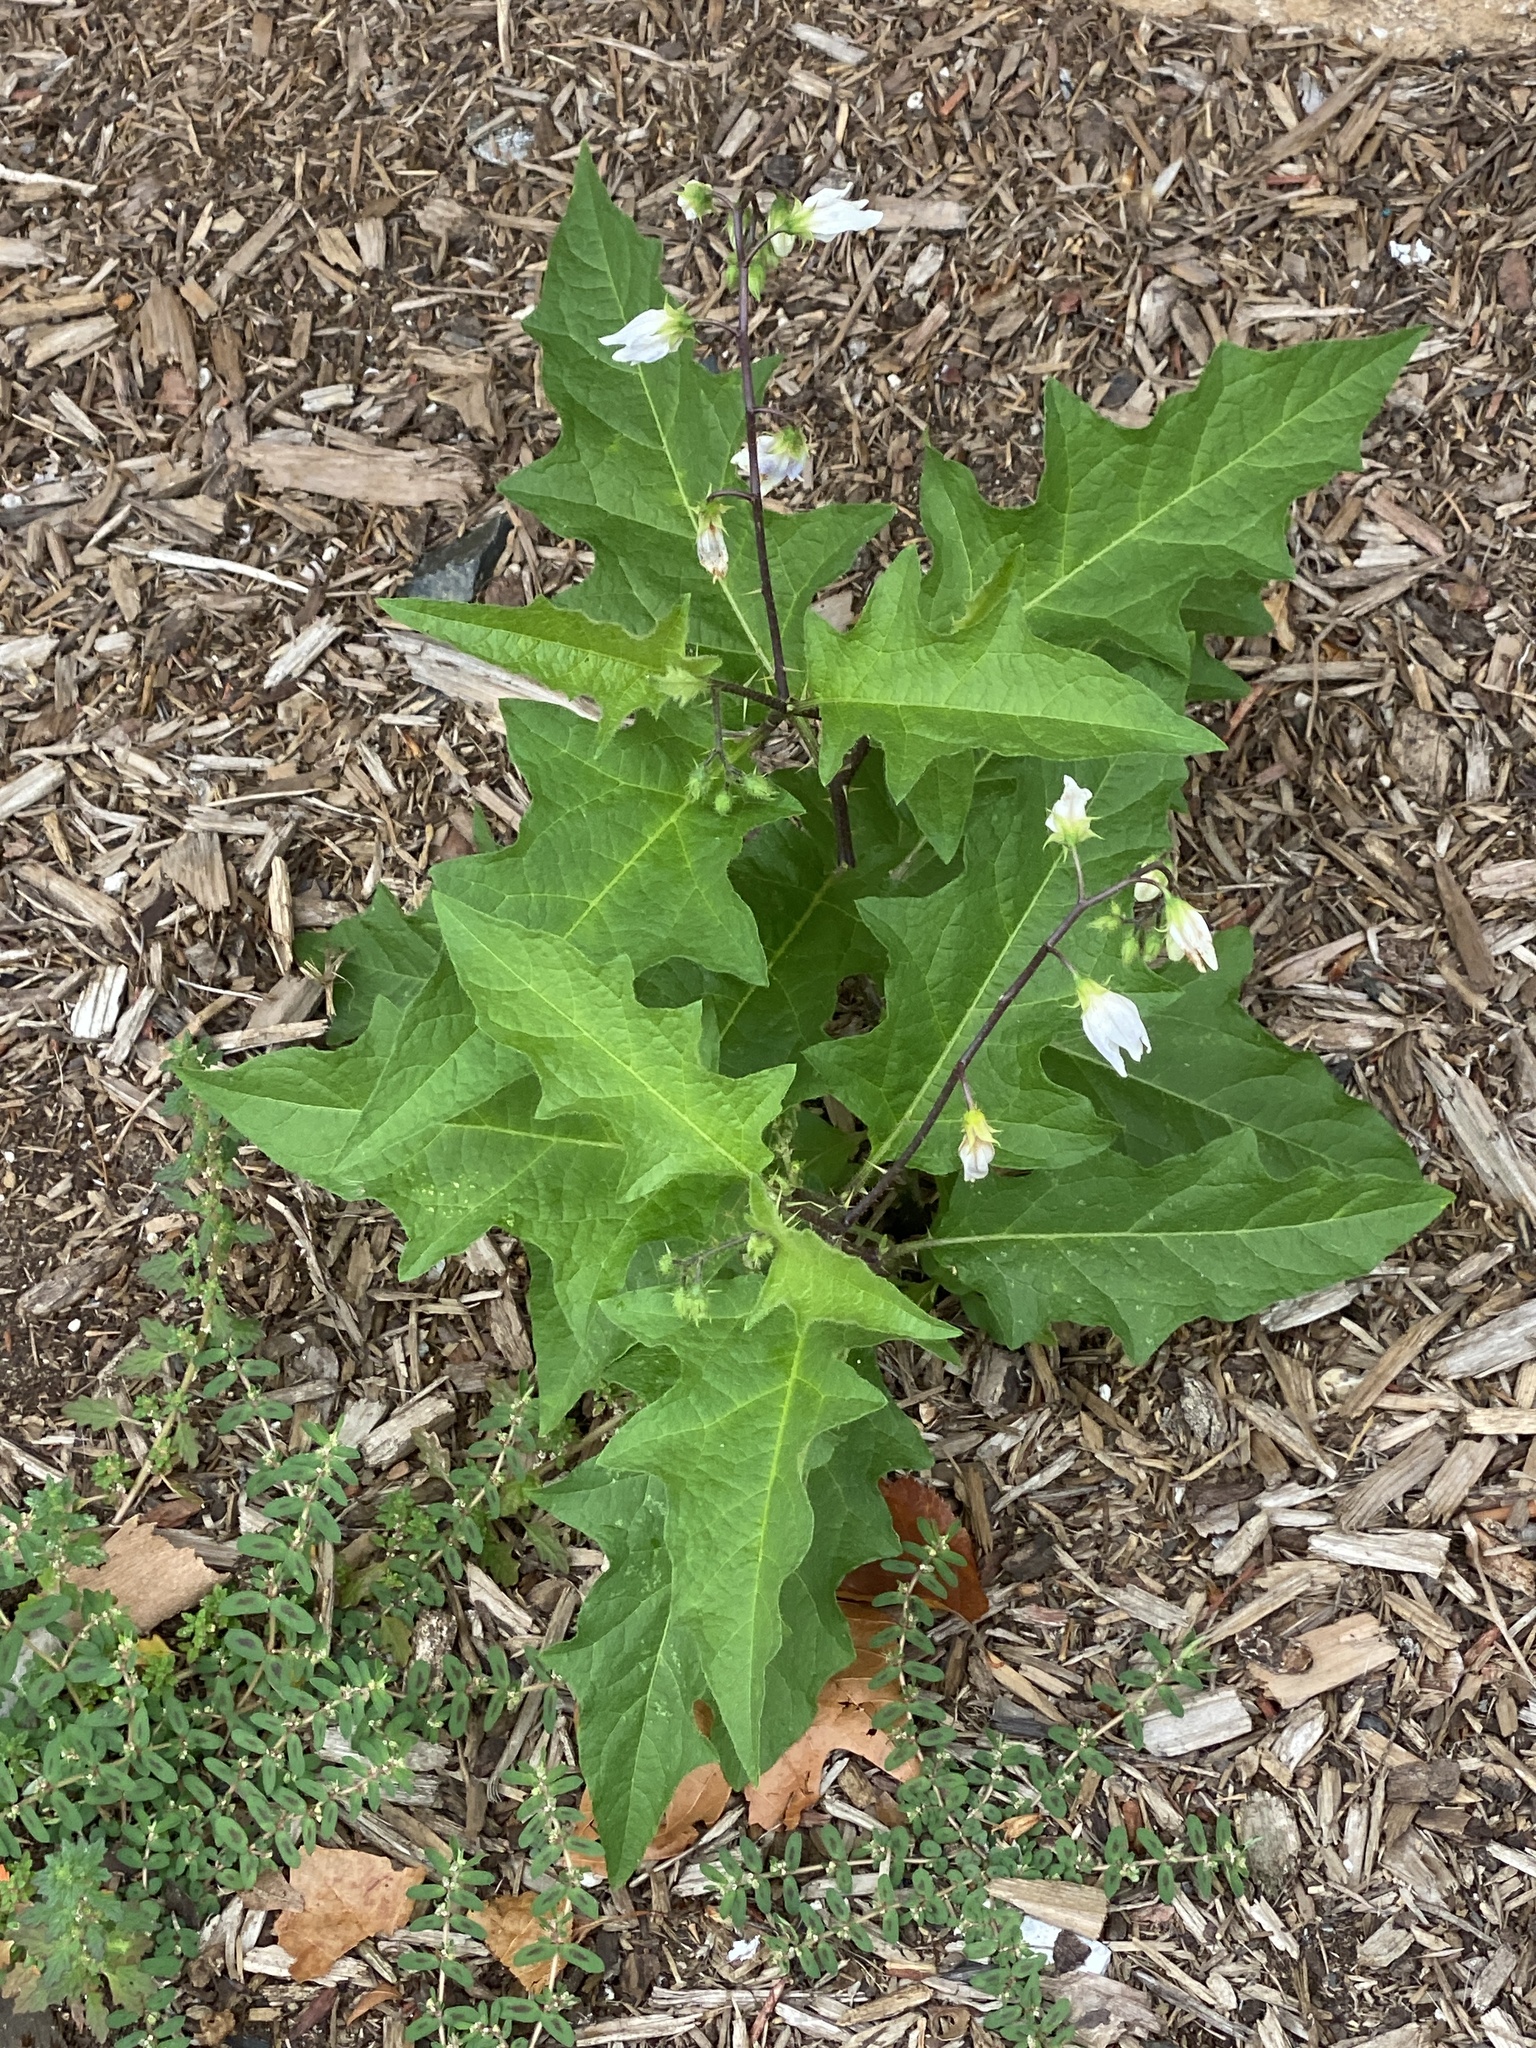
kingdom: Plantae
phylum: Tracheophyta
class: Magnoliopsida
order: Solanales
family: Solanaceae
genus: Solanum
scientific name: Solanum carolinense
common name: Horse-nettle
